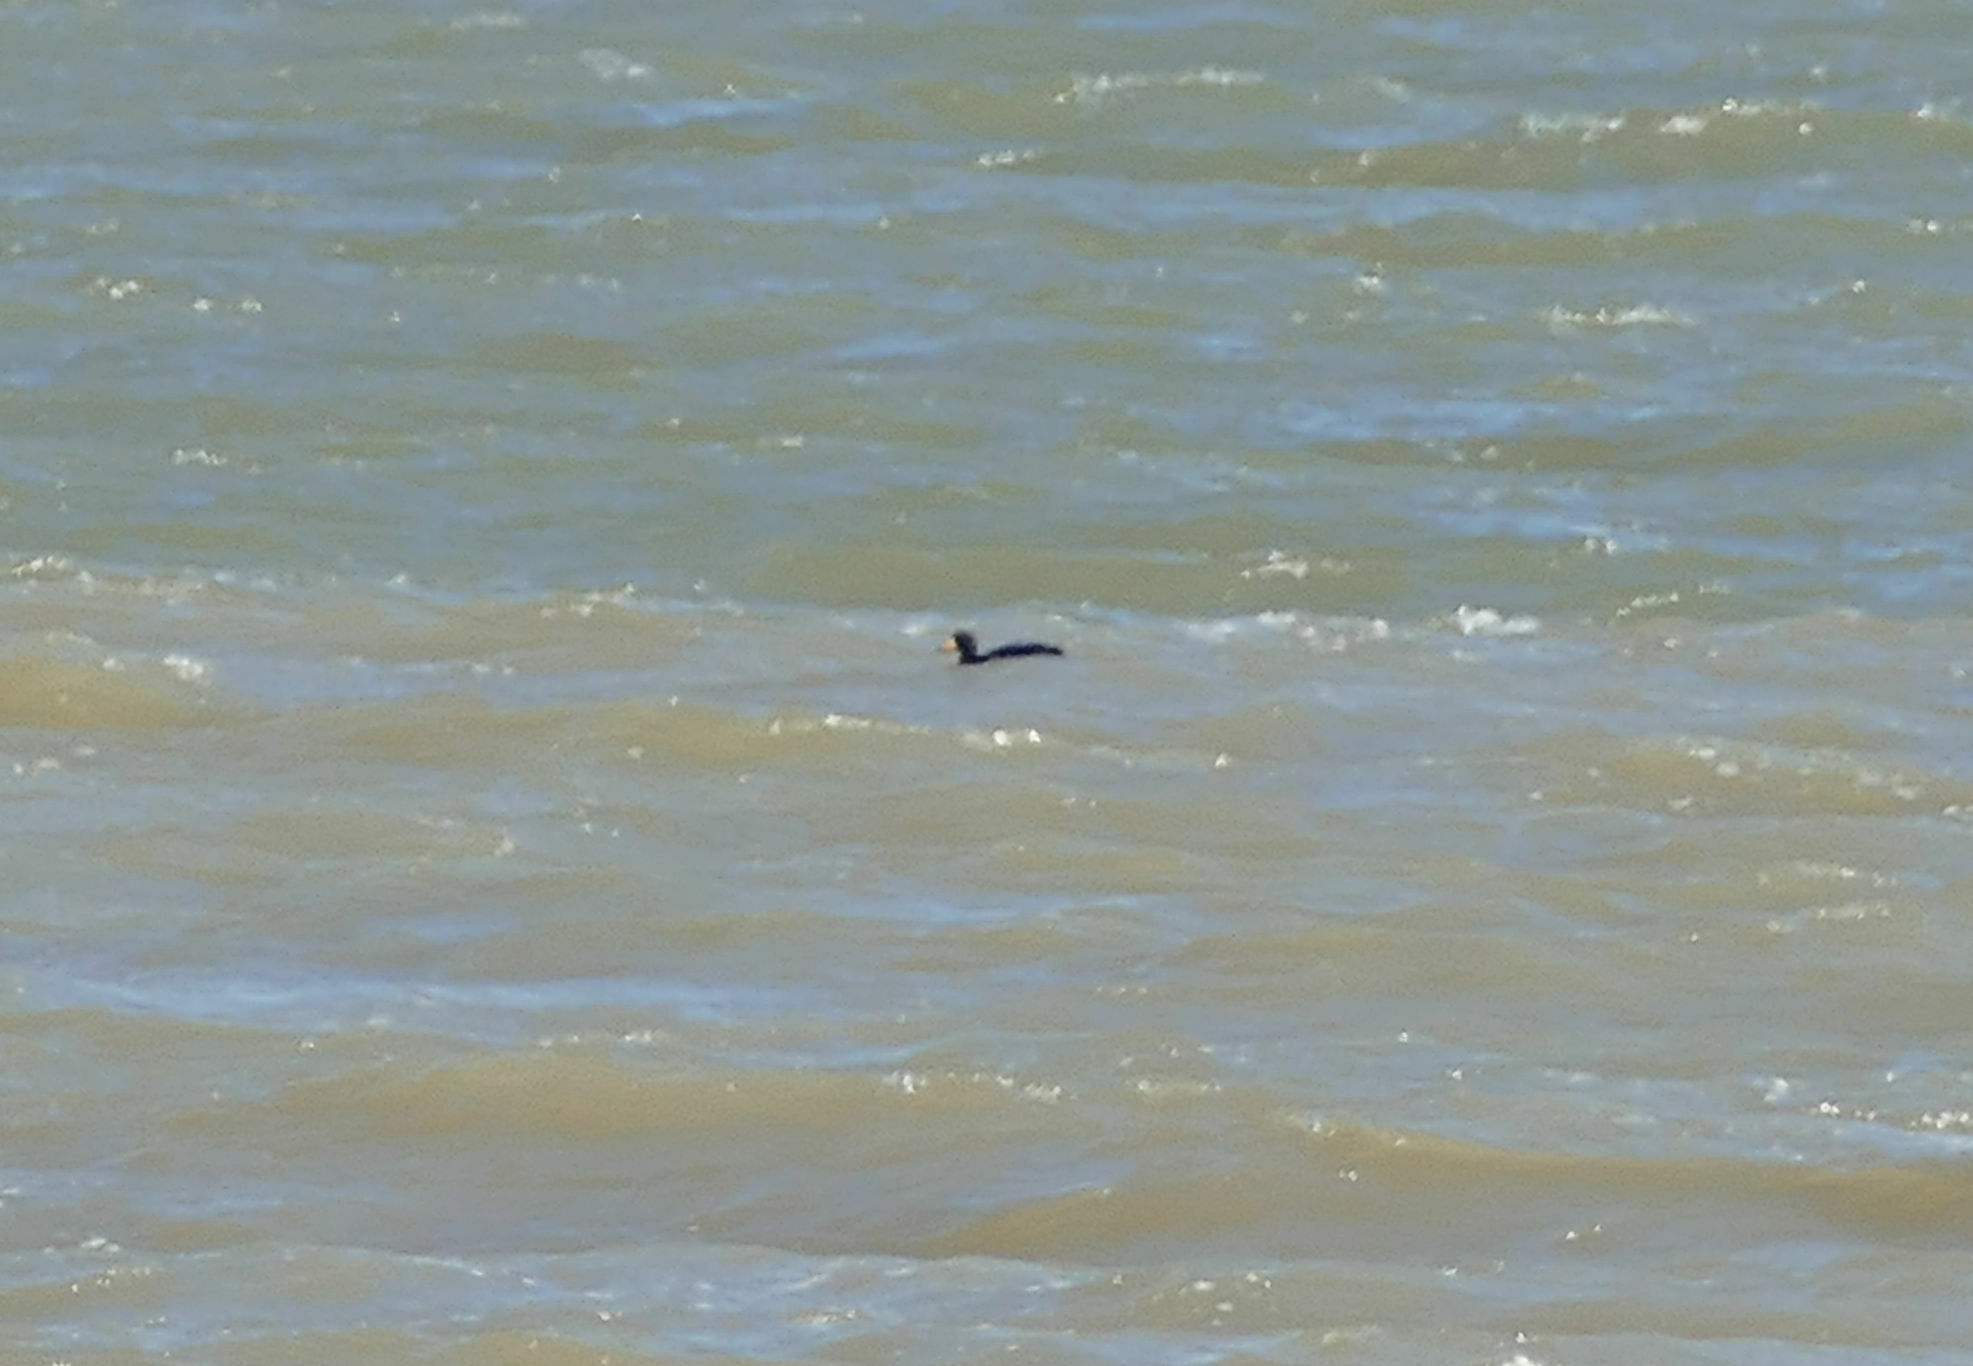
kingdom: Animalia
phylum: Chordata
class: Aves
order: Anseriformes
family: Anatidae
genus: Melanitta
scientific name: Melanitta americana
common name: Black scoter
